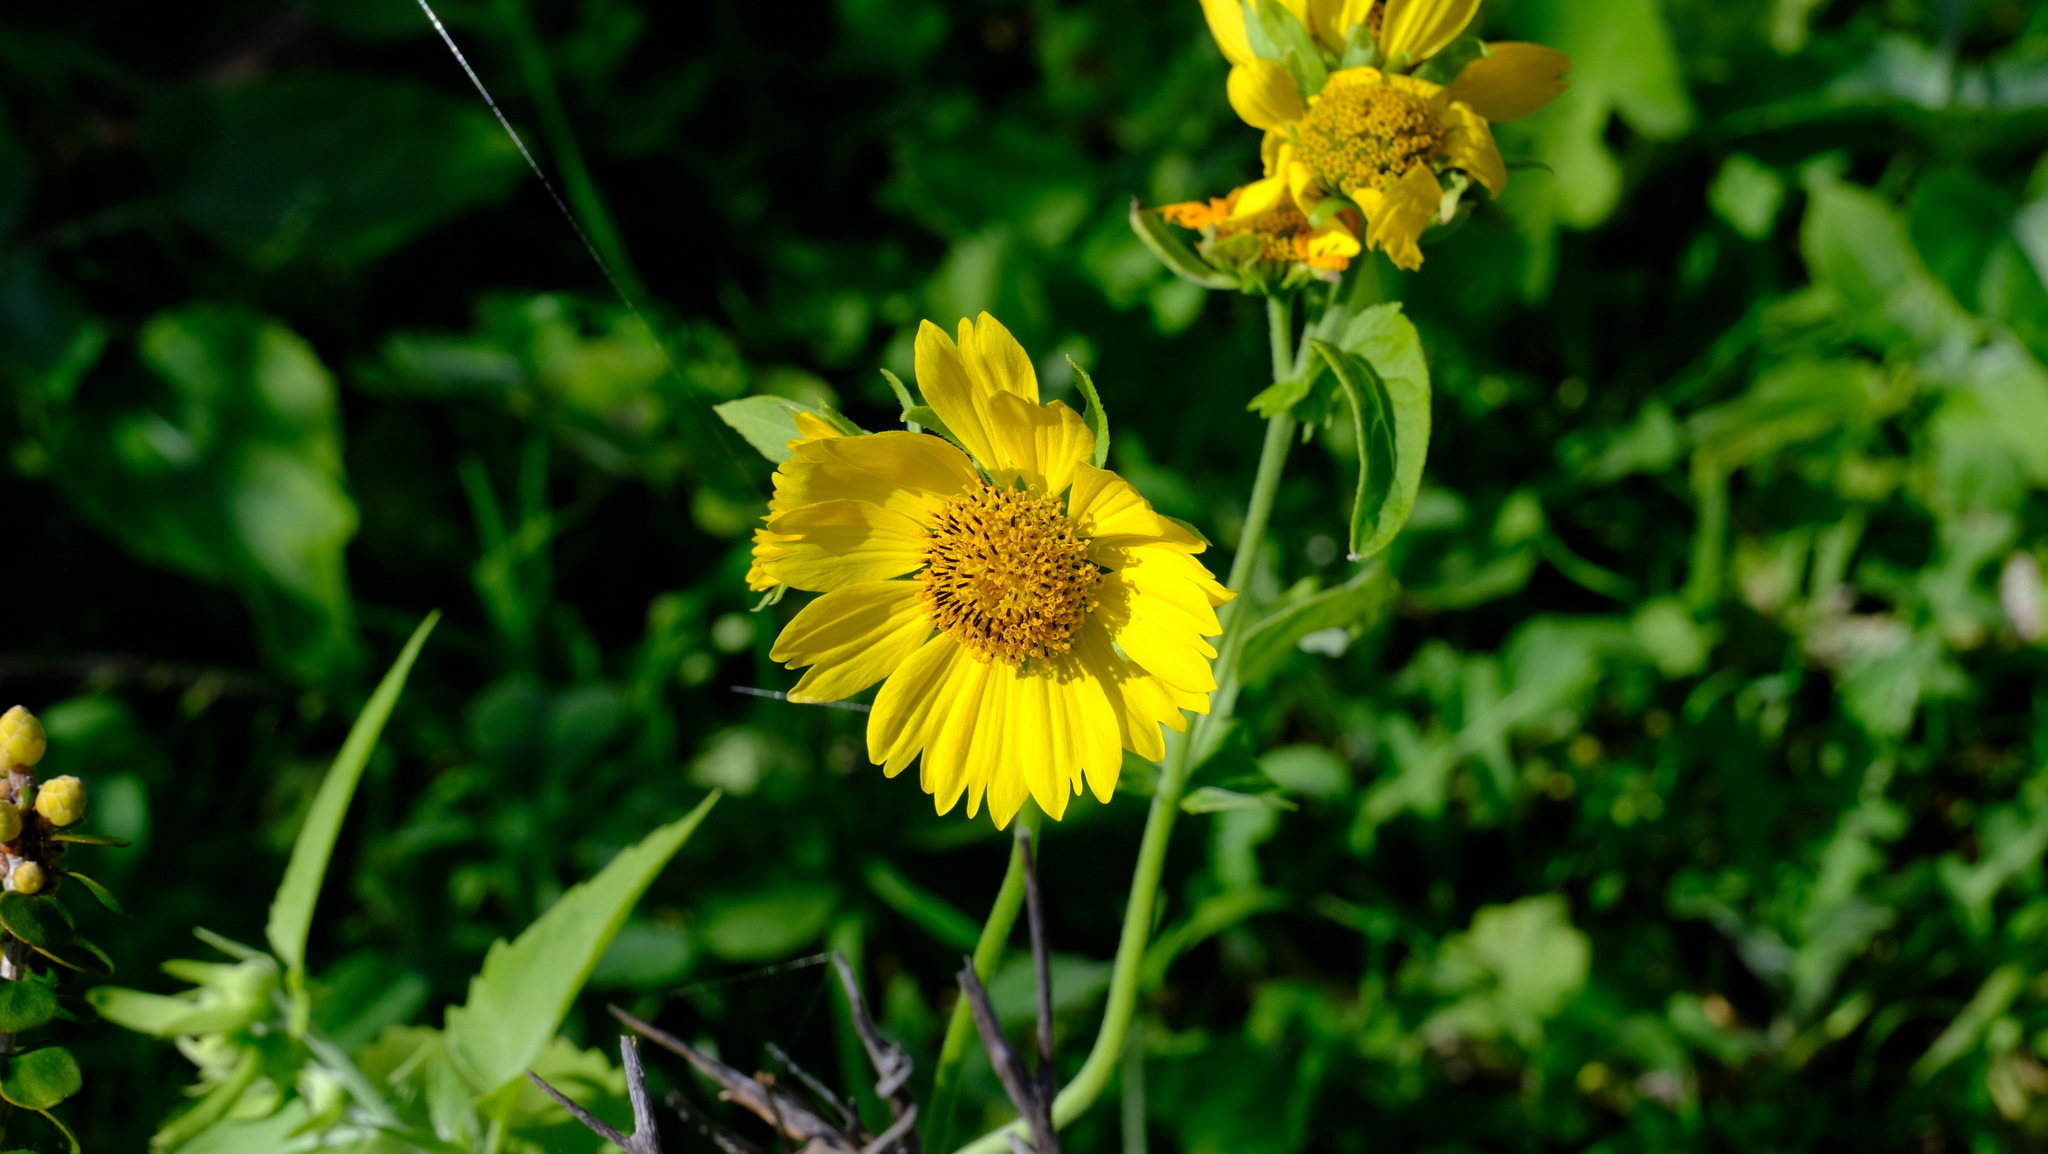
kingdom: Plantae
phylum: Tracheophyta
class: Magnoliopsida
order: Asterales
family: Asteraceae
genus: Verbesina
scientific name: Verbesina encelioides
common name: Golden crownbeard
